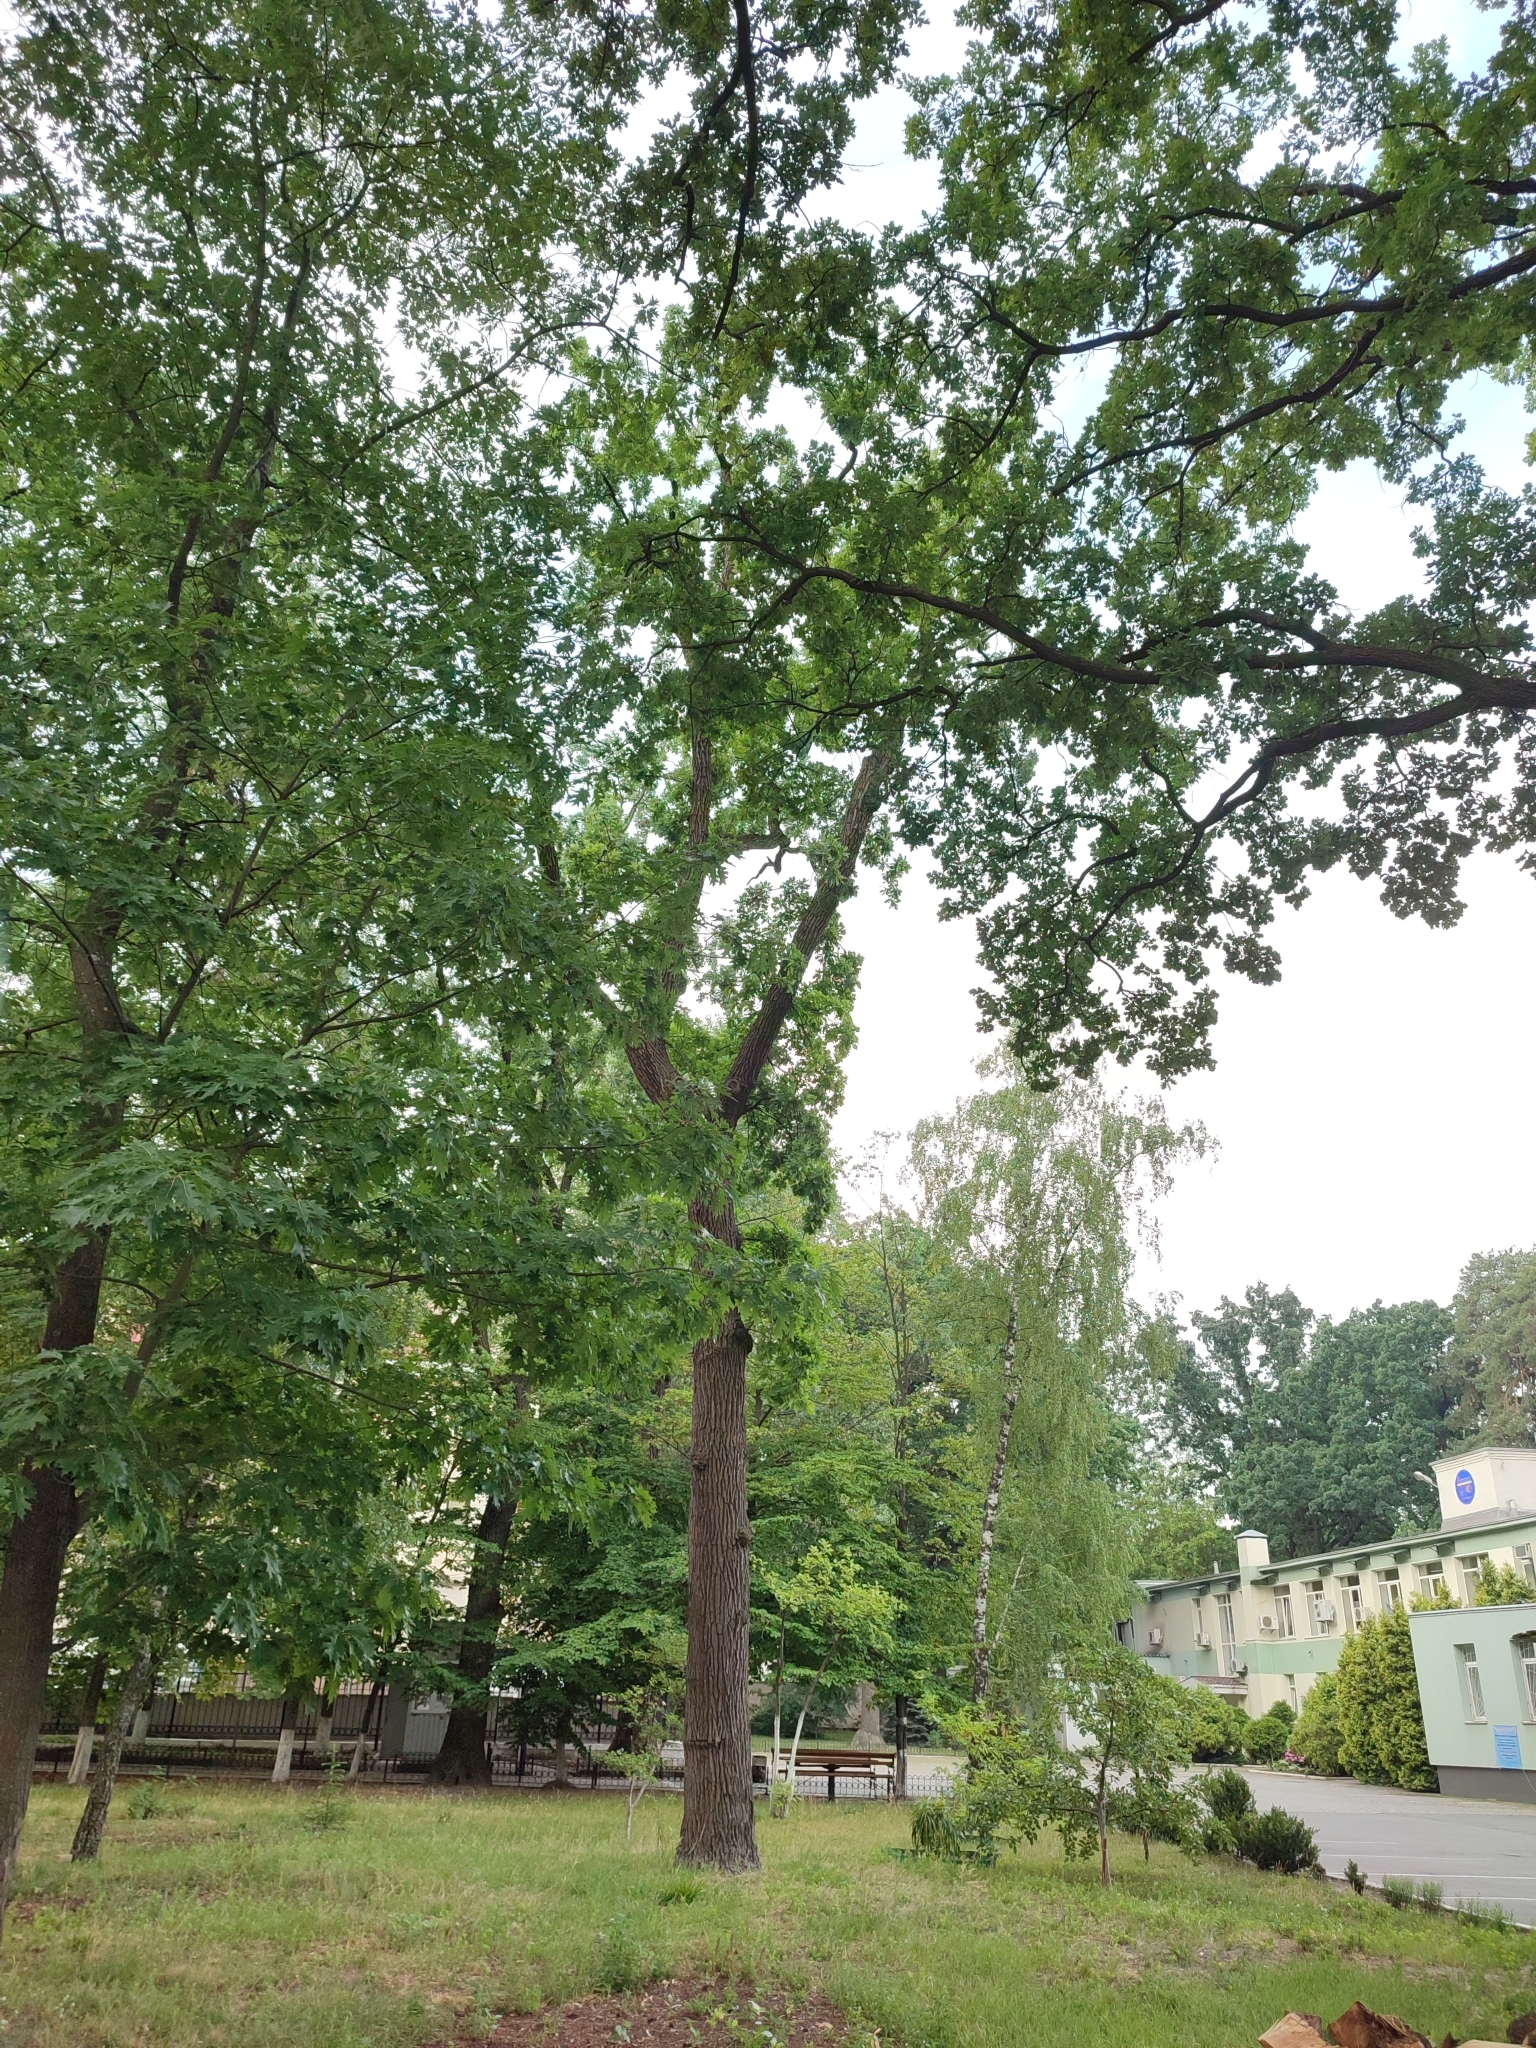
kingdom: Plantae
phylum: Tracheophyta
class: Magnoliopsida
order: Fagales
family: Fagaceae
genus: Quercus
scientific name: Quercus robur
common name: Pedunculate oak
